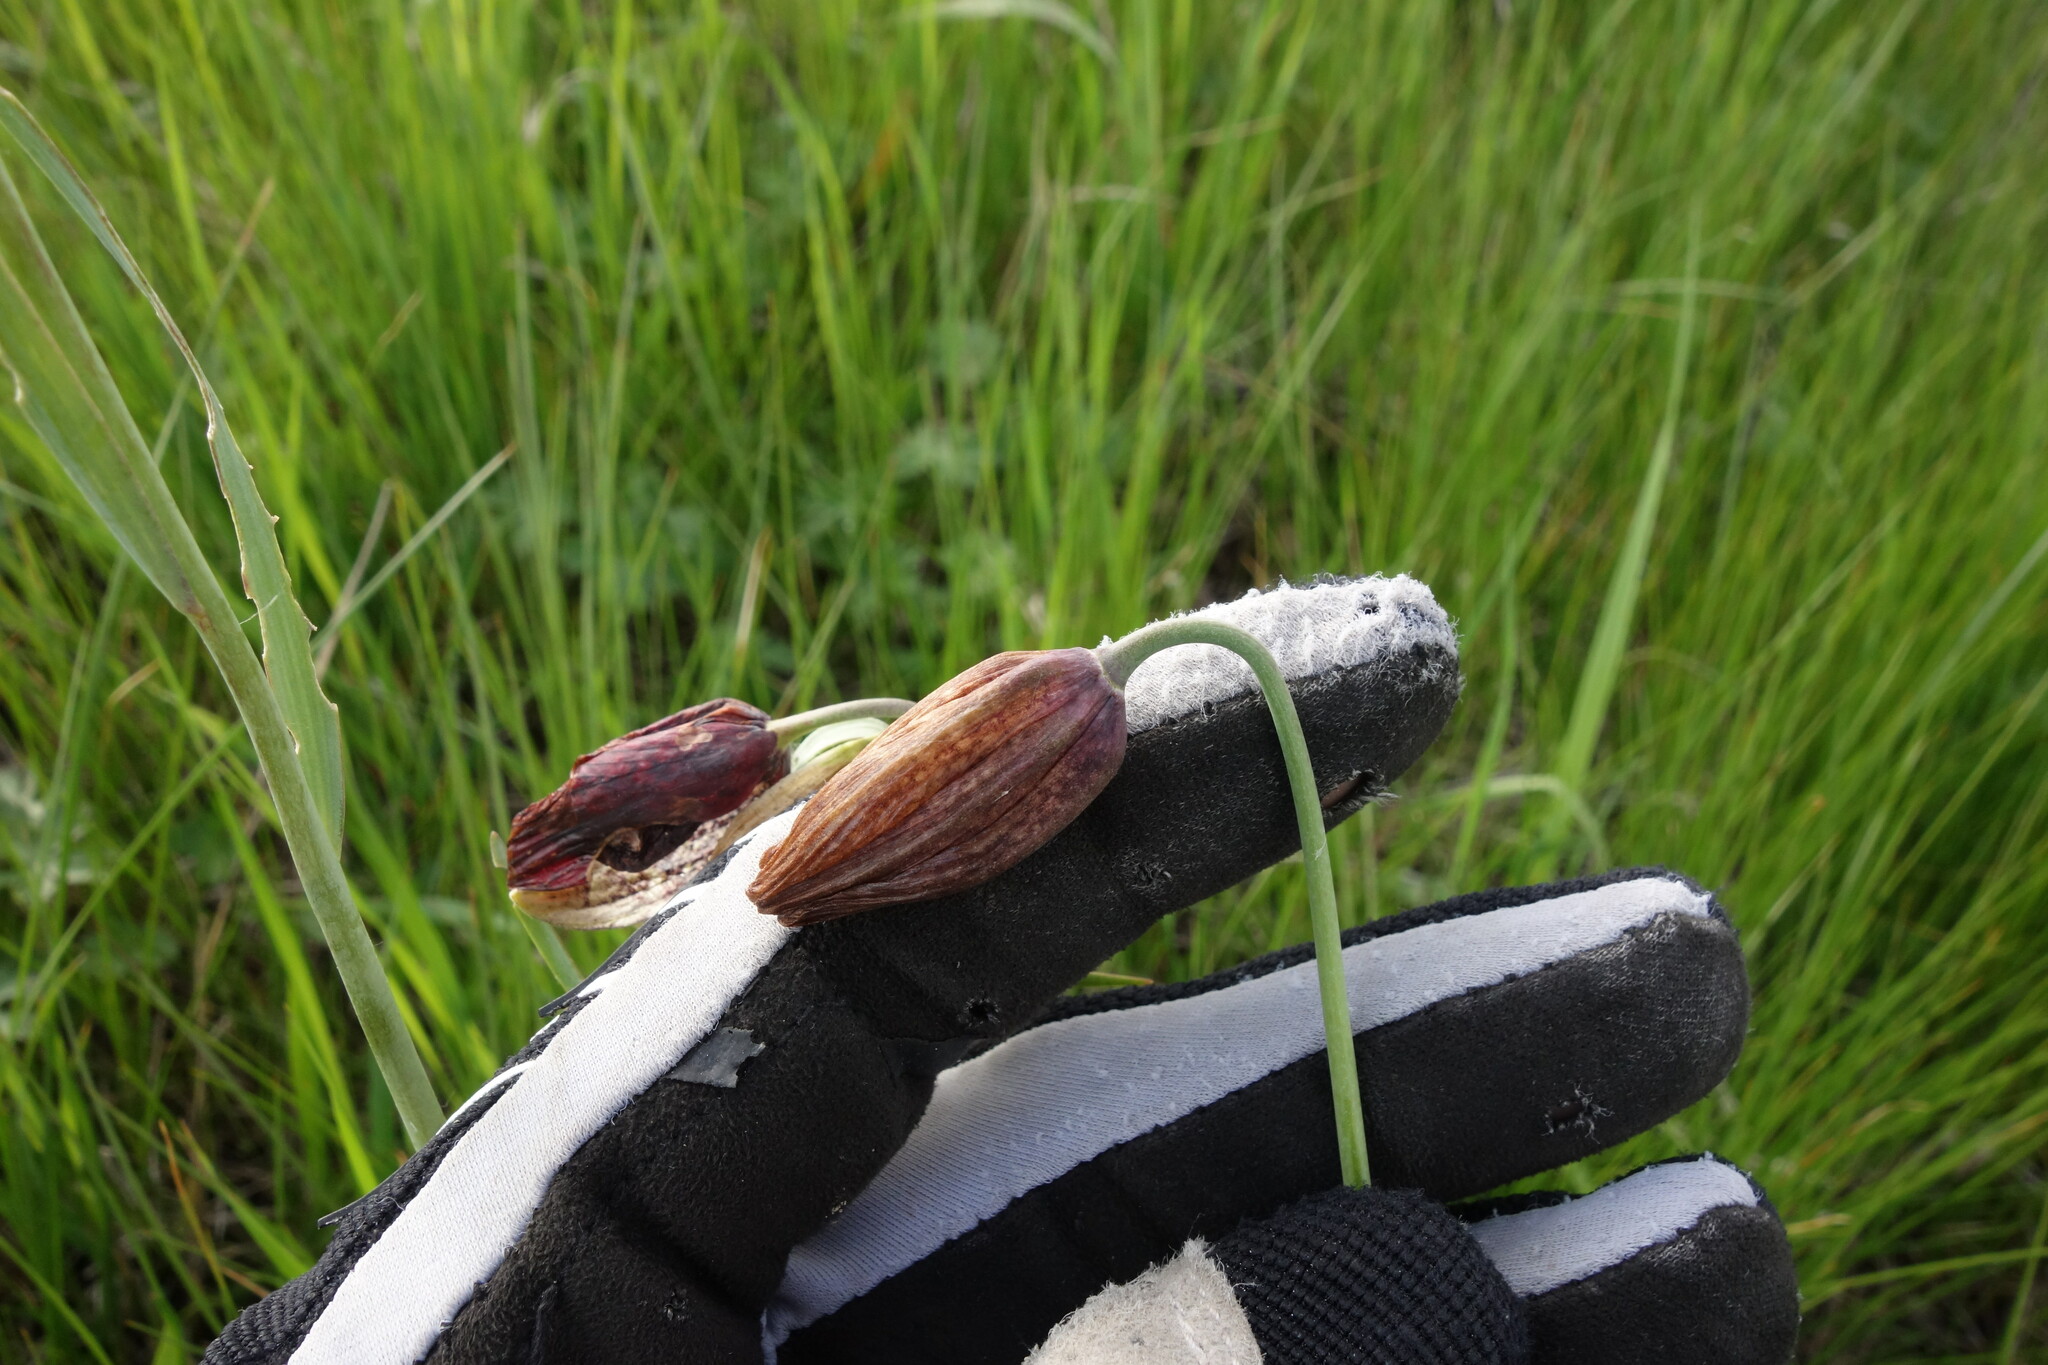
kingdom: Plantae
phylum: Tracheophyta
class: Liliopsida
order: Liliales
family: Liliaceae
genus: Fritillaria
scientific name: Fritillaria meleagroides
